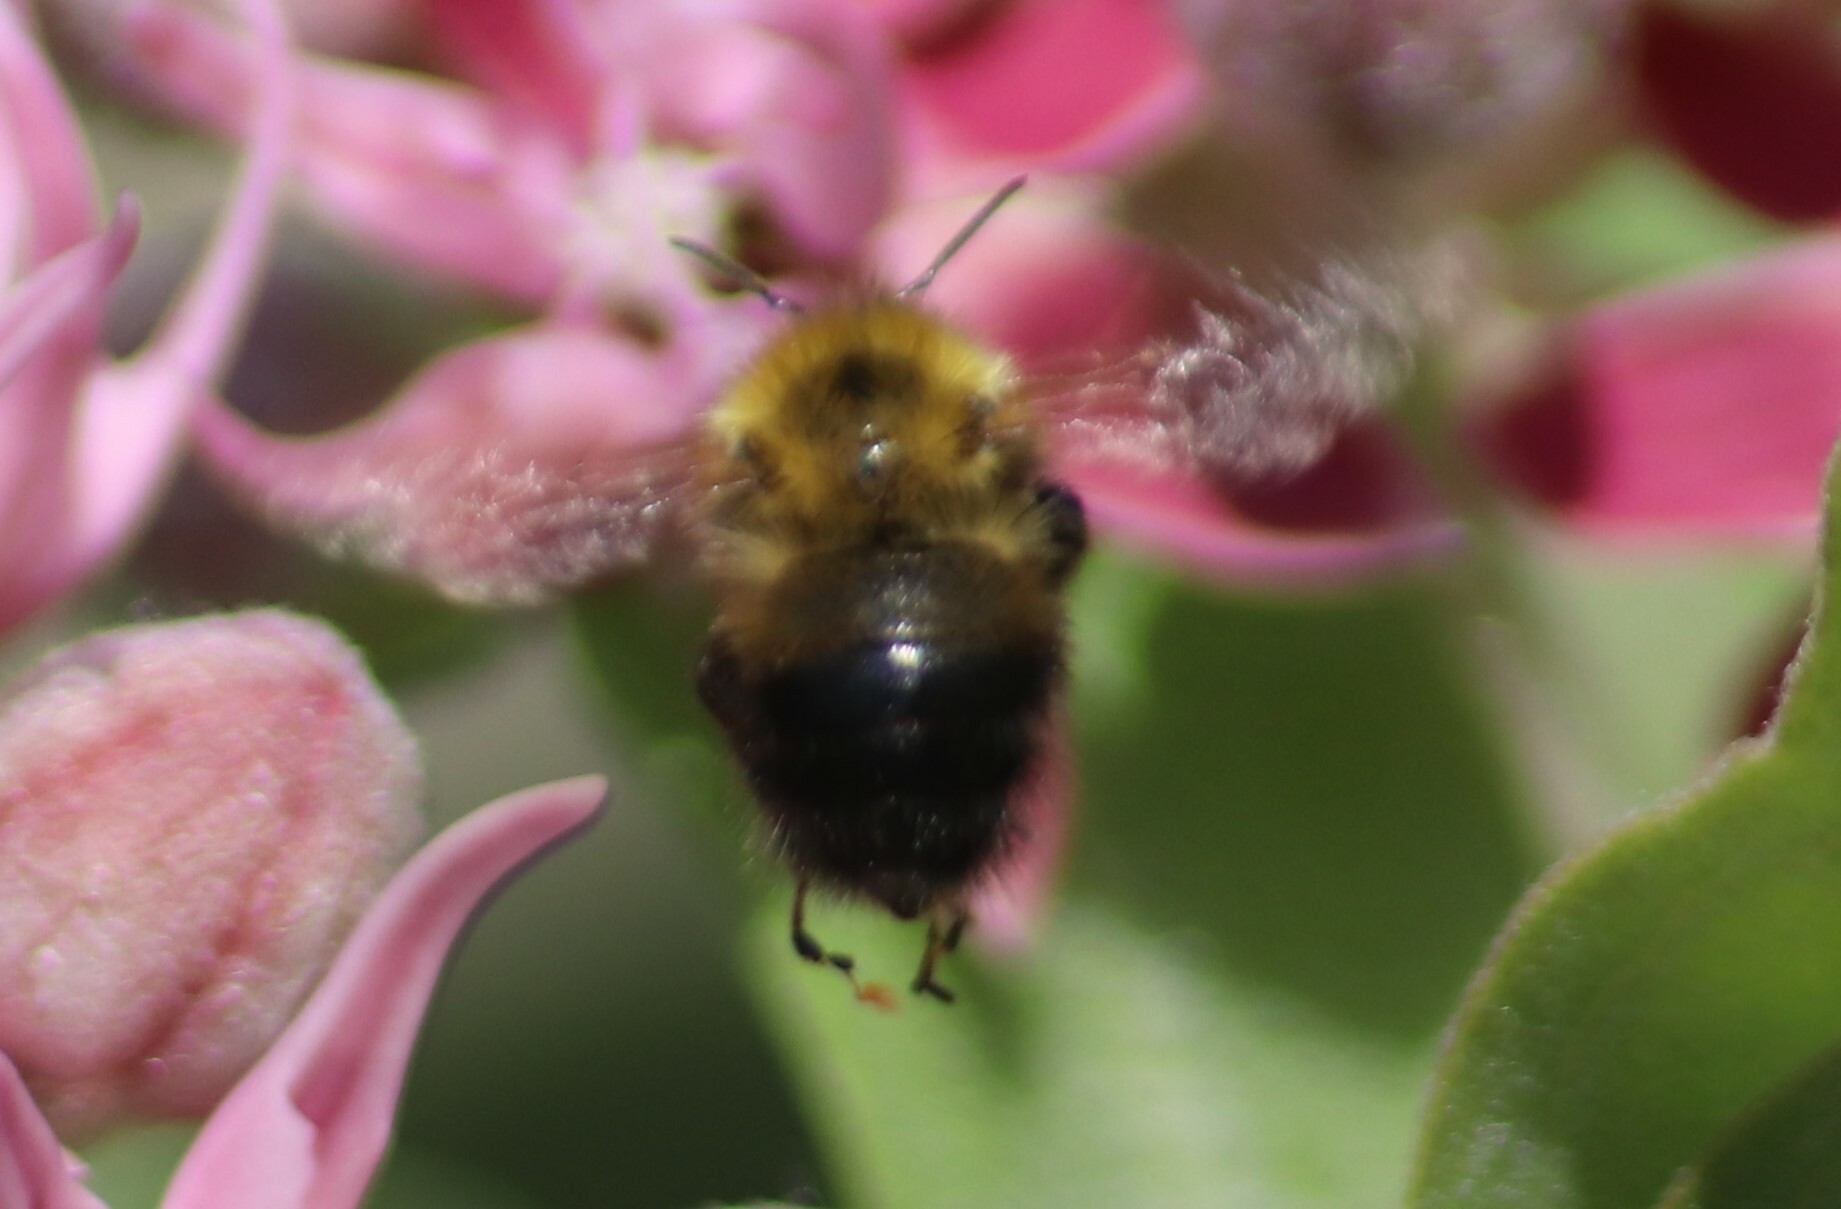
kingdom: Animalia
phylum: Arthropoda
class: Insecta
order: Hymenoptera
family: Apidae
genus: Bombus
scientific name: Bombus perplexus
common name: Confusing bumble bee
